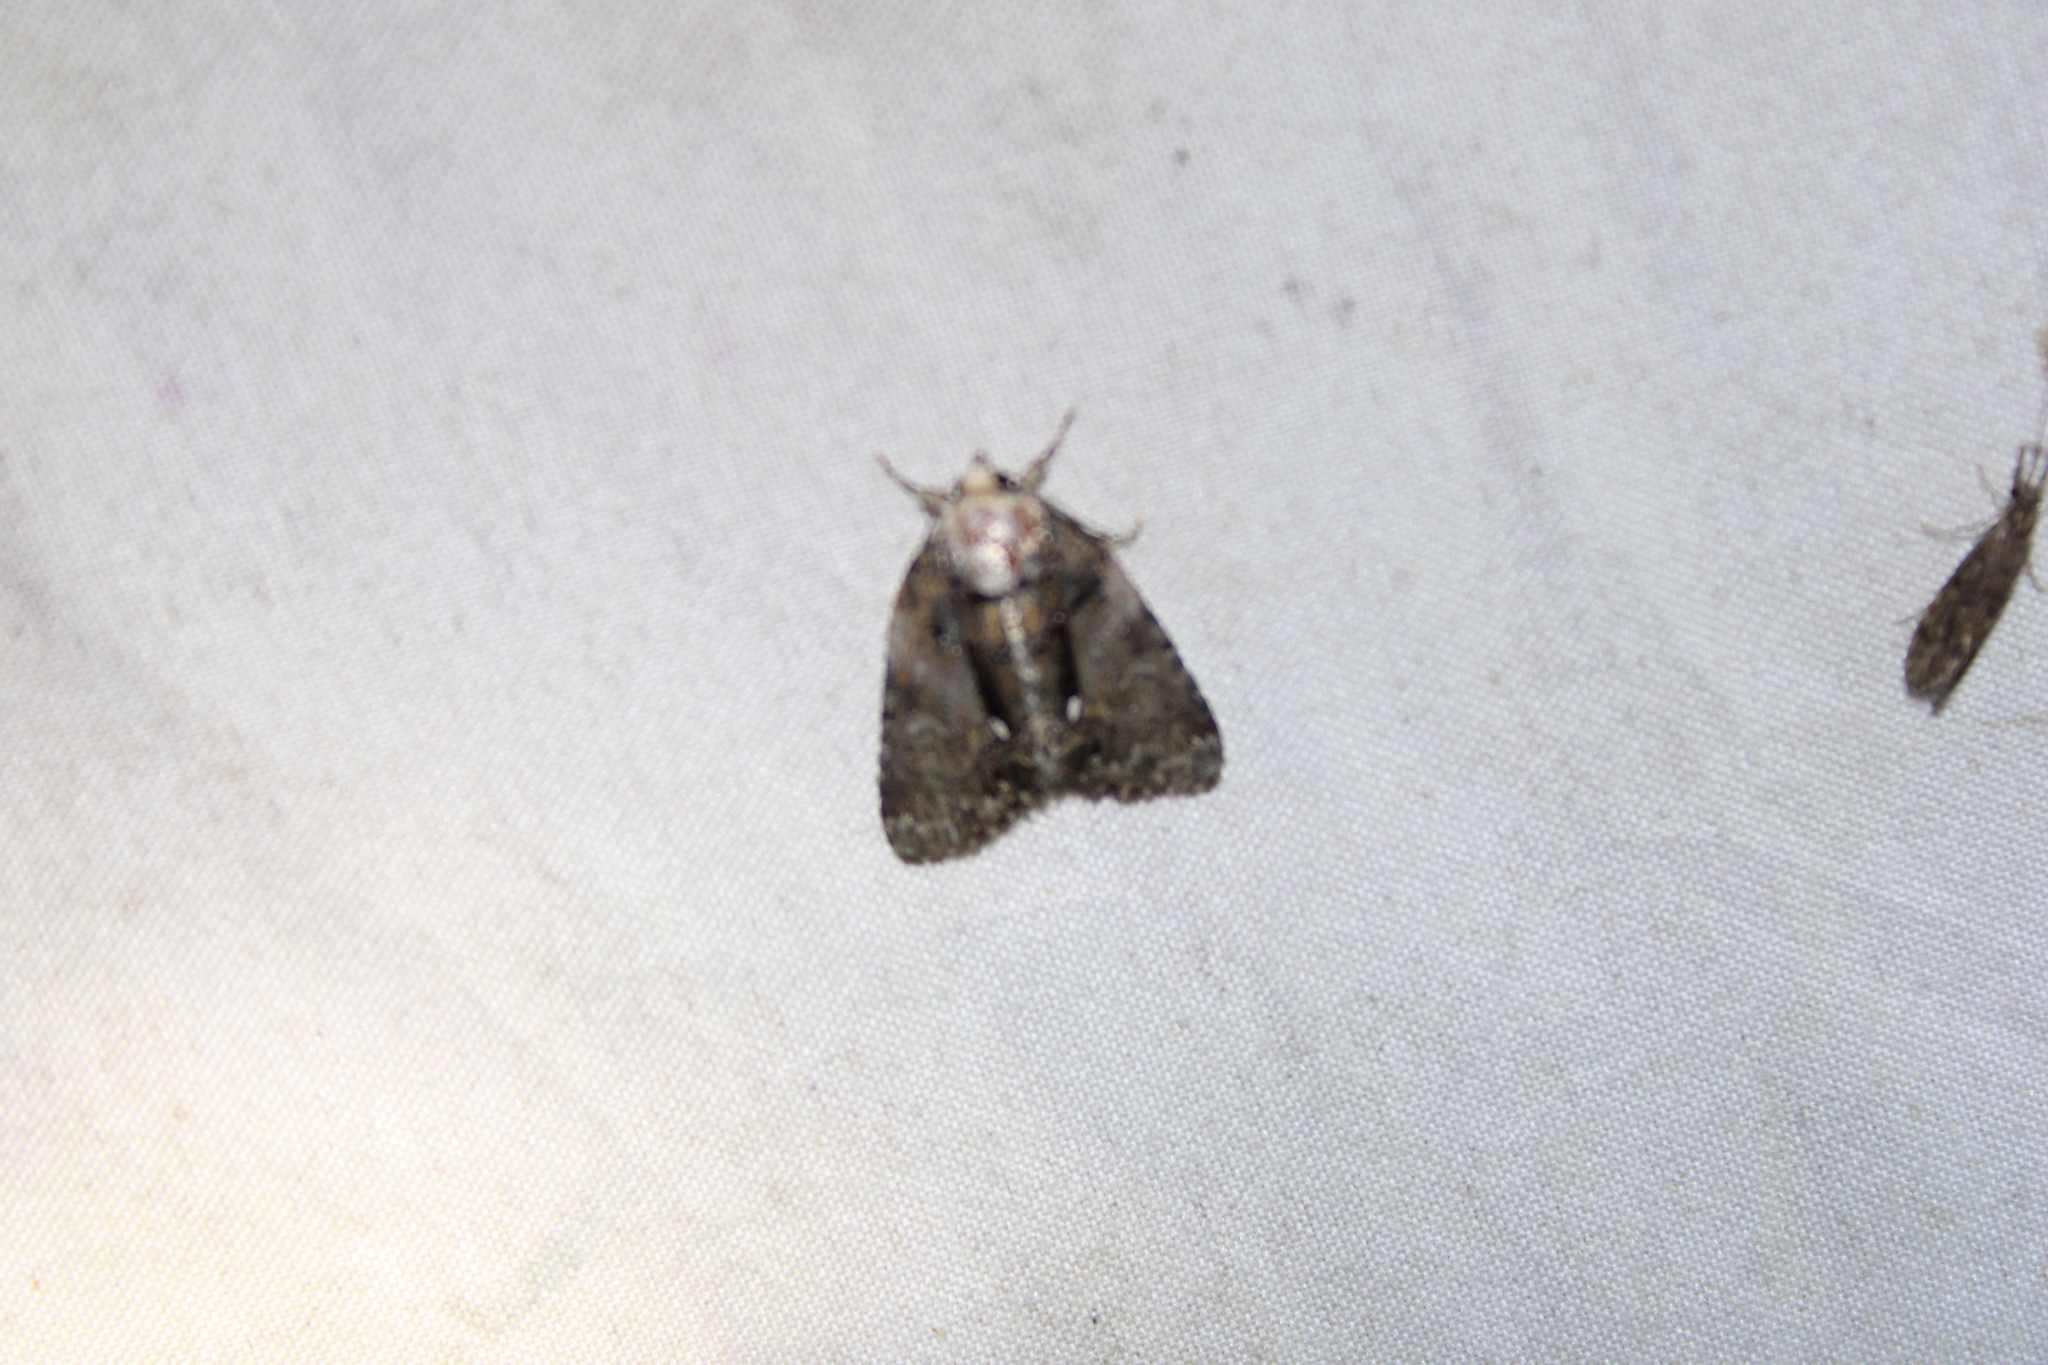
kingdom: Animalia
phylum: Arthropoda
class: Insecta
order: Lepidoptera
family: Noctuidae
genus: Chytonix
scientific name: Chytonix palliatricula
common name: Cloaked marvel
